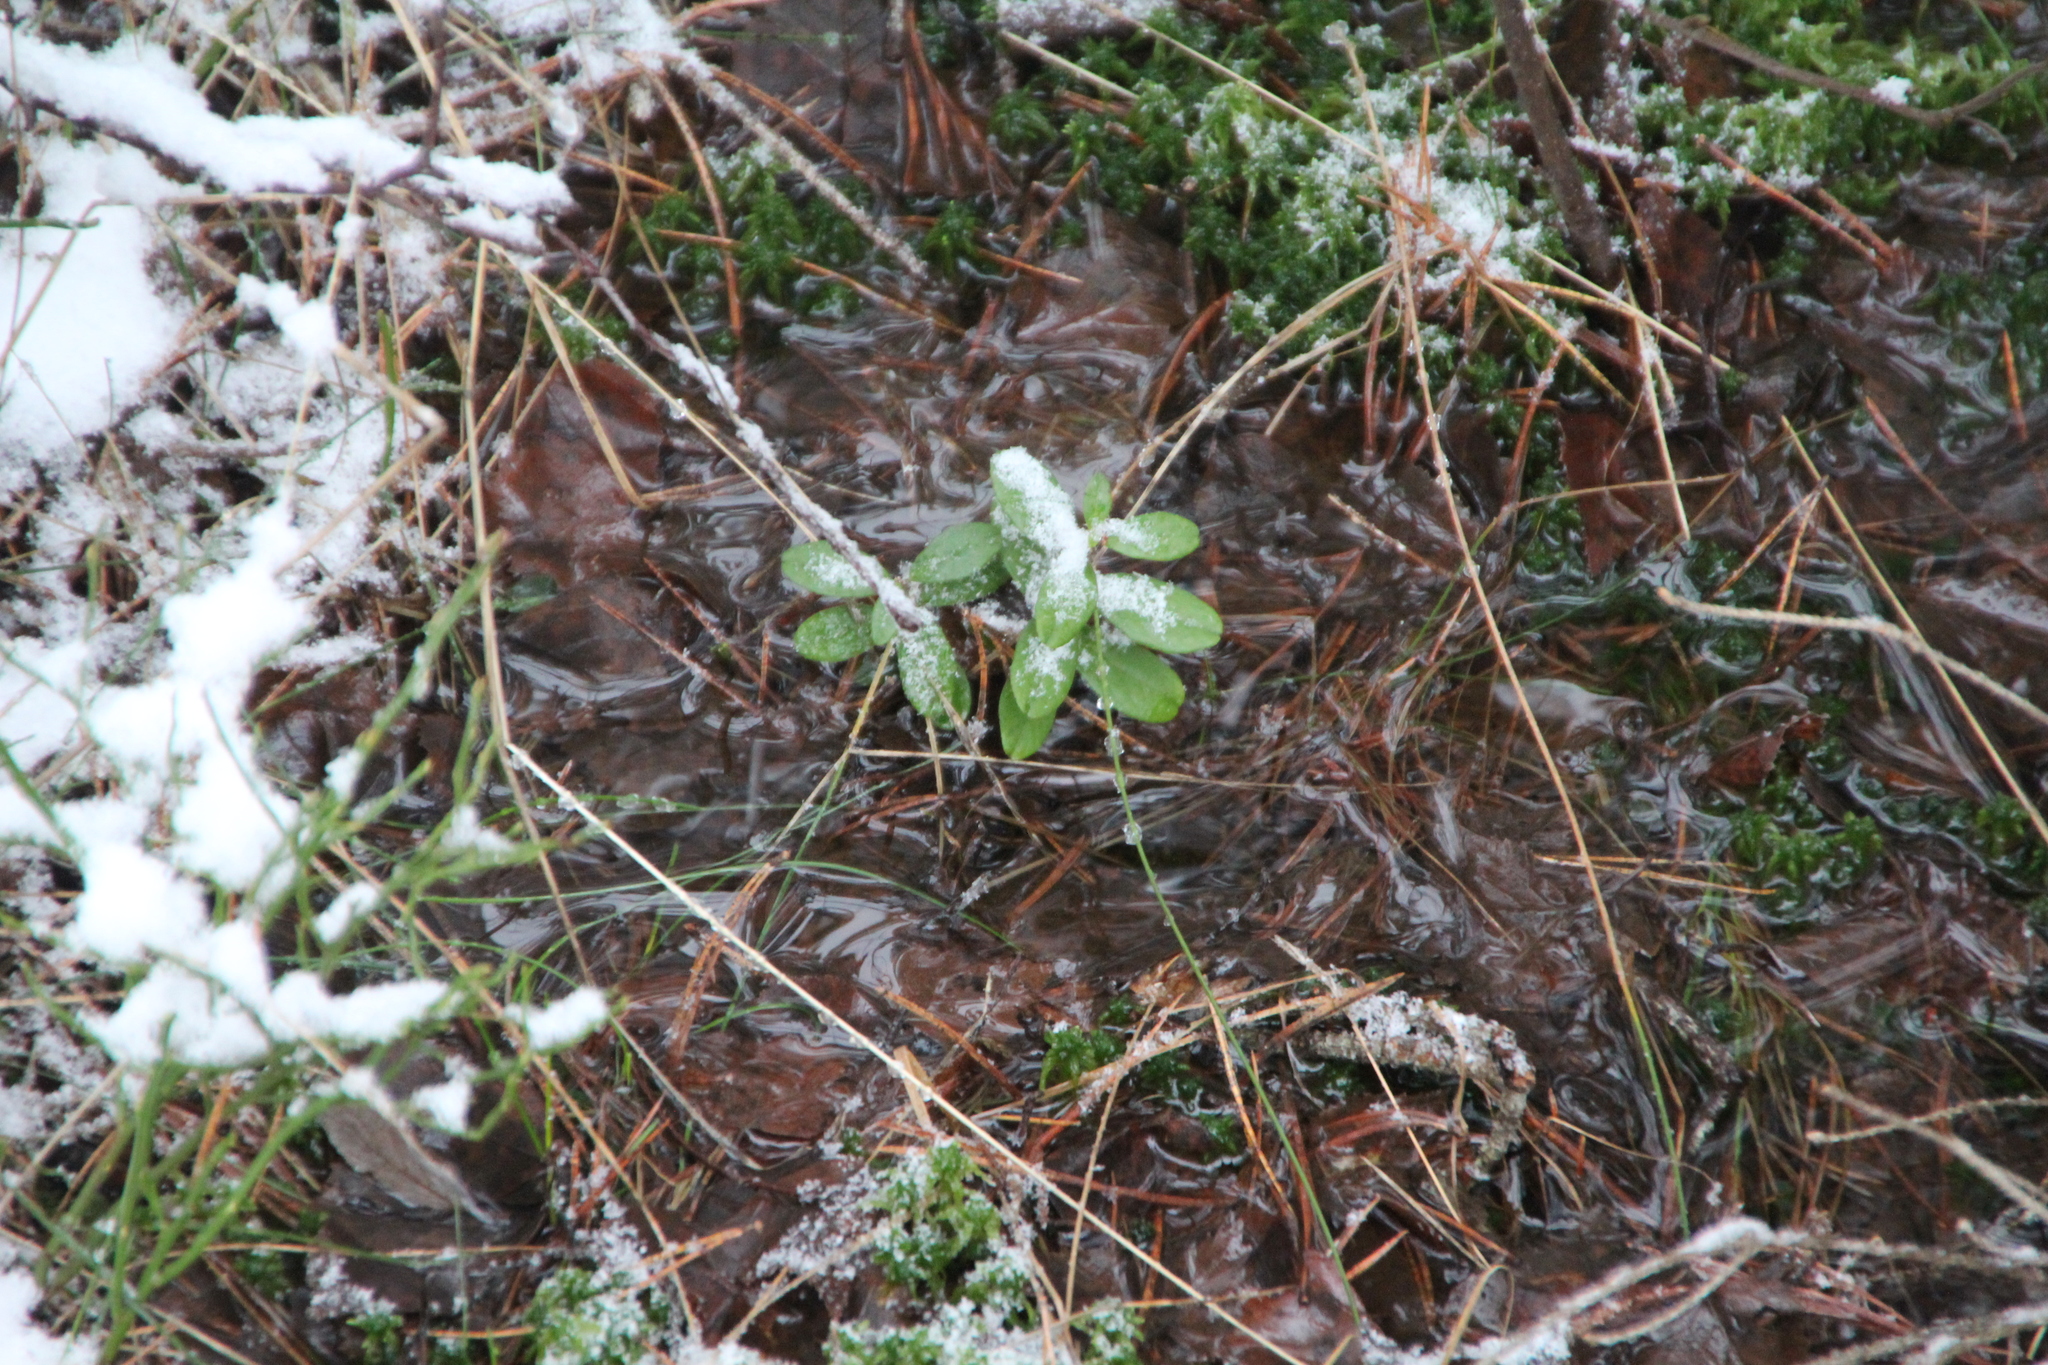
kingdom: Plantae
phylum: Tracheophyta
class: Magnoliopsida
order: Ericales
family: Ericaceae
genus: Vaccinium
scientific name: Vaccinium vitis-idaea
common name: Cowberry
